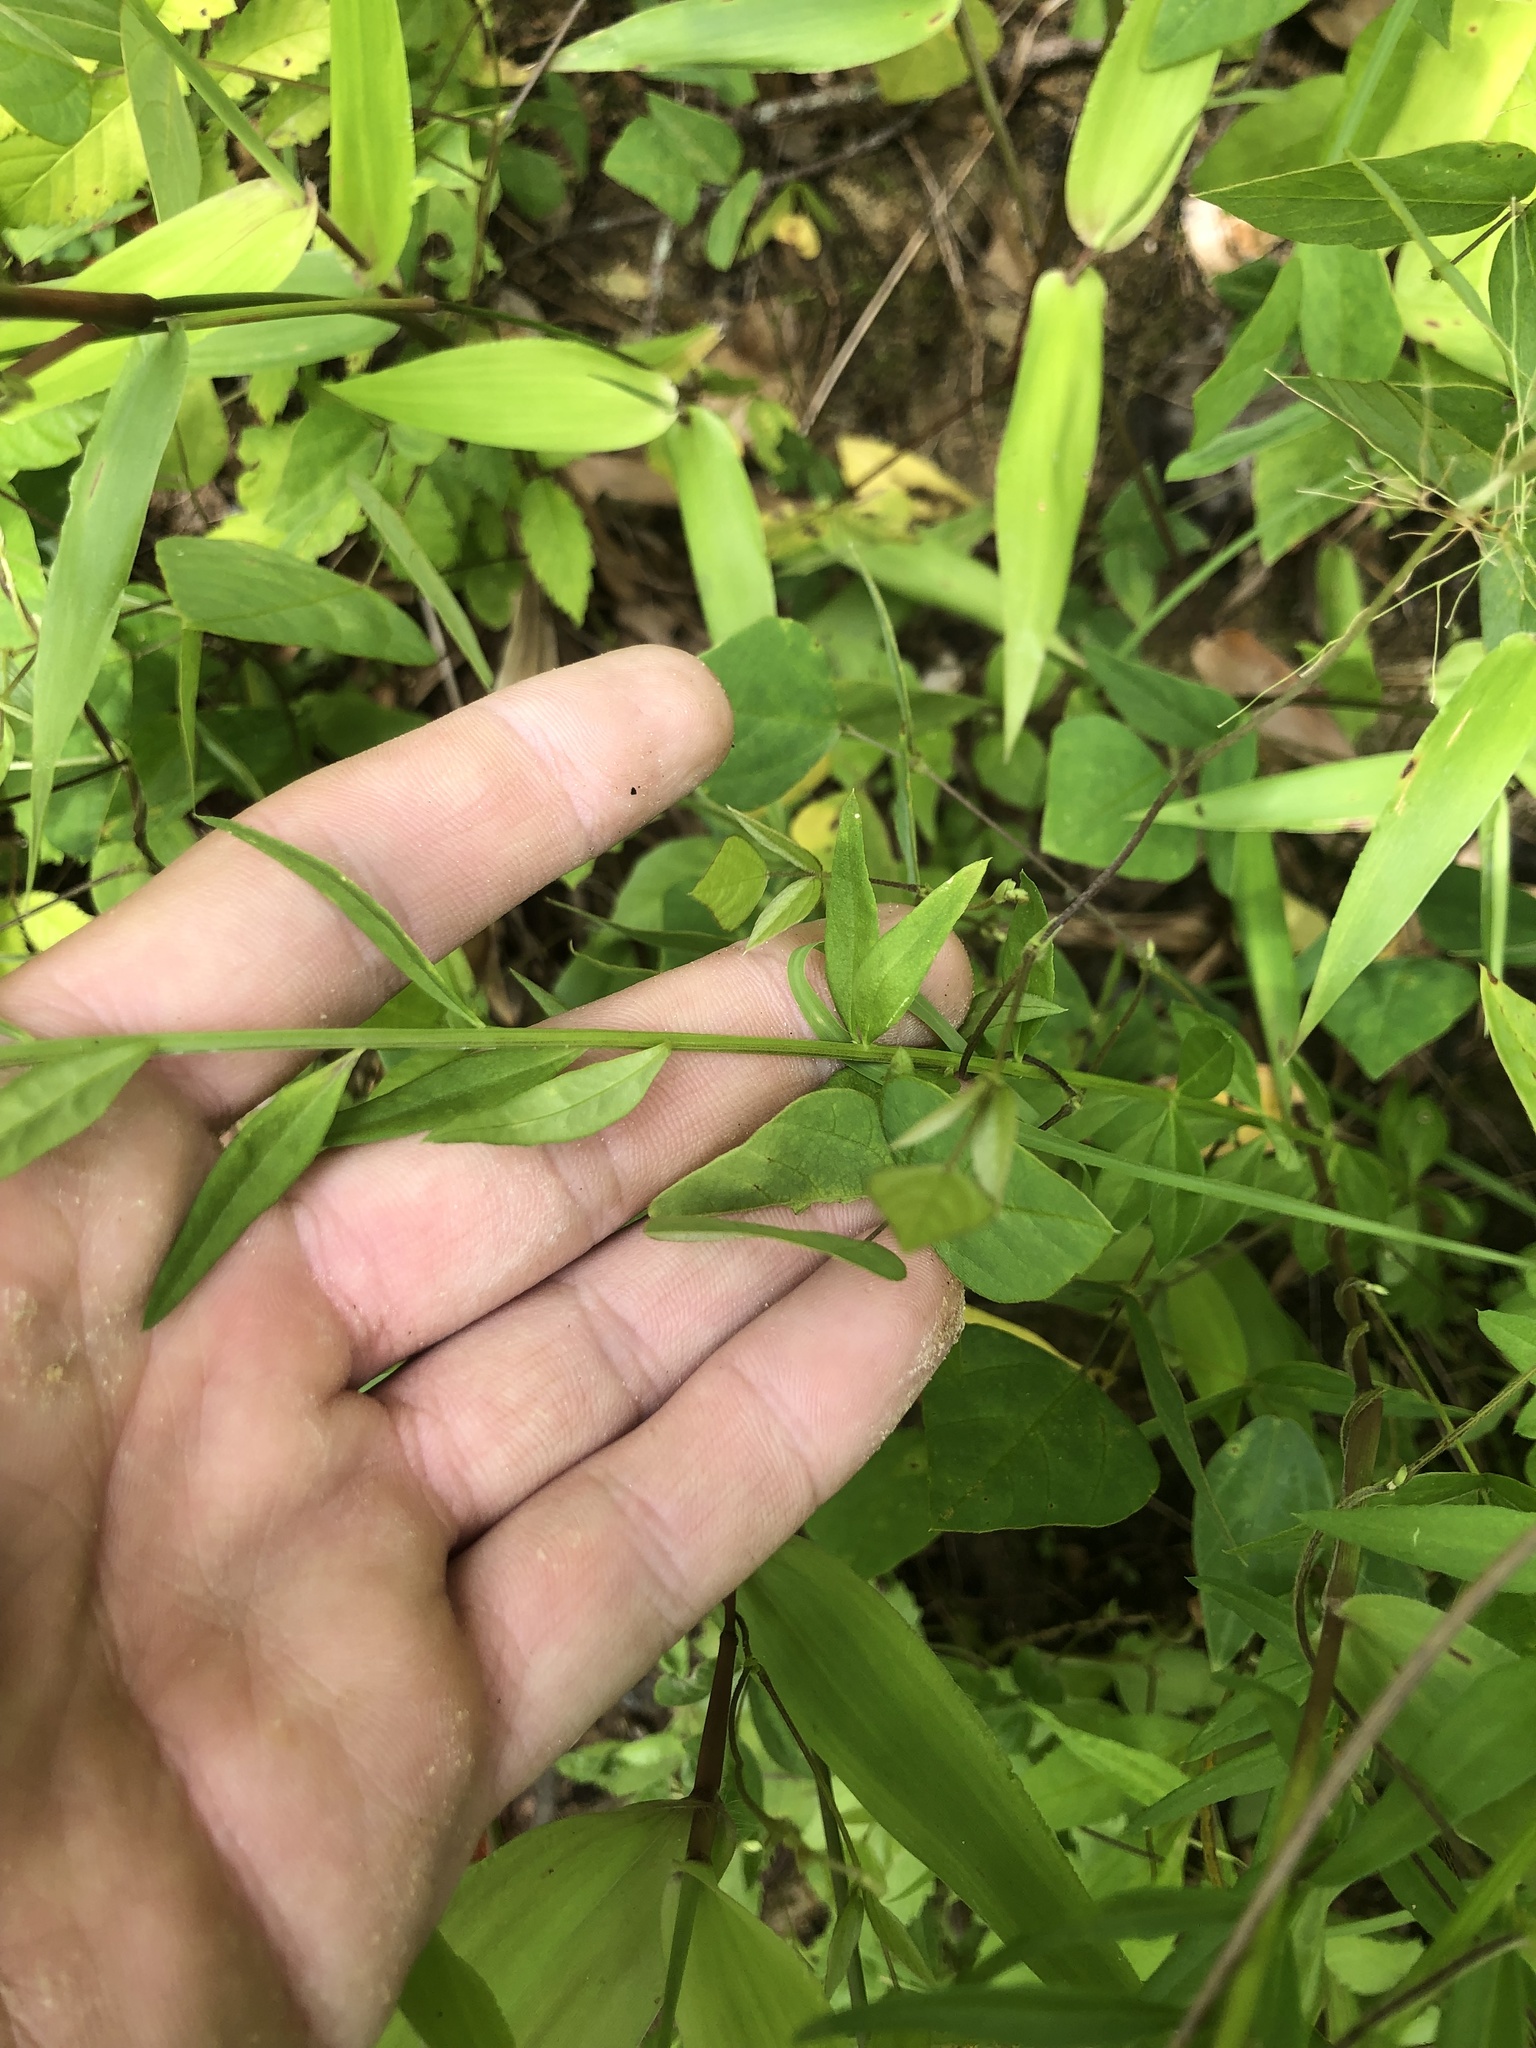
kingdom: Plantae
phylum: Tracheophyta
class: Magnoliopsida
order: Fabales
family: Polygalaceae
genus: Polygala
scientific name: Polygala boykinii
